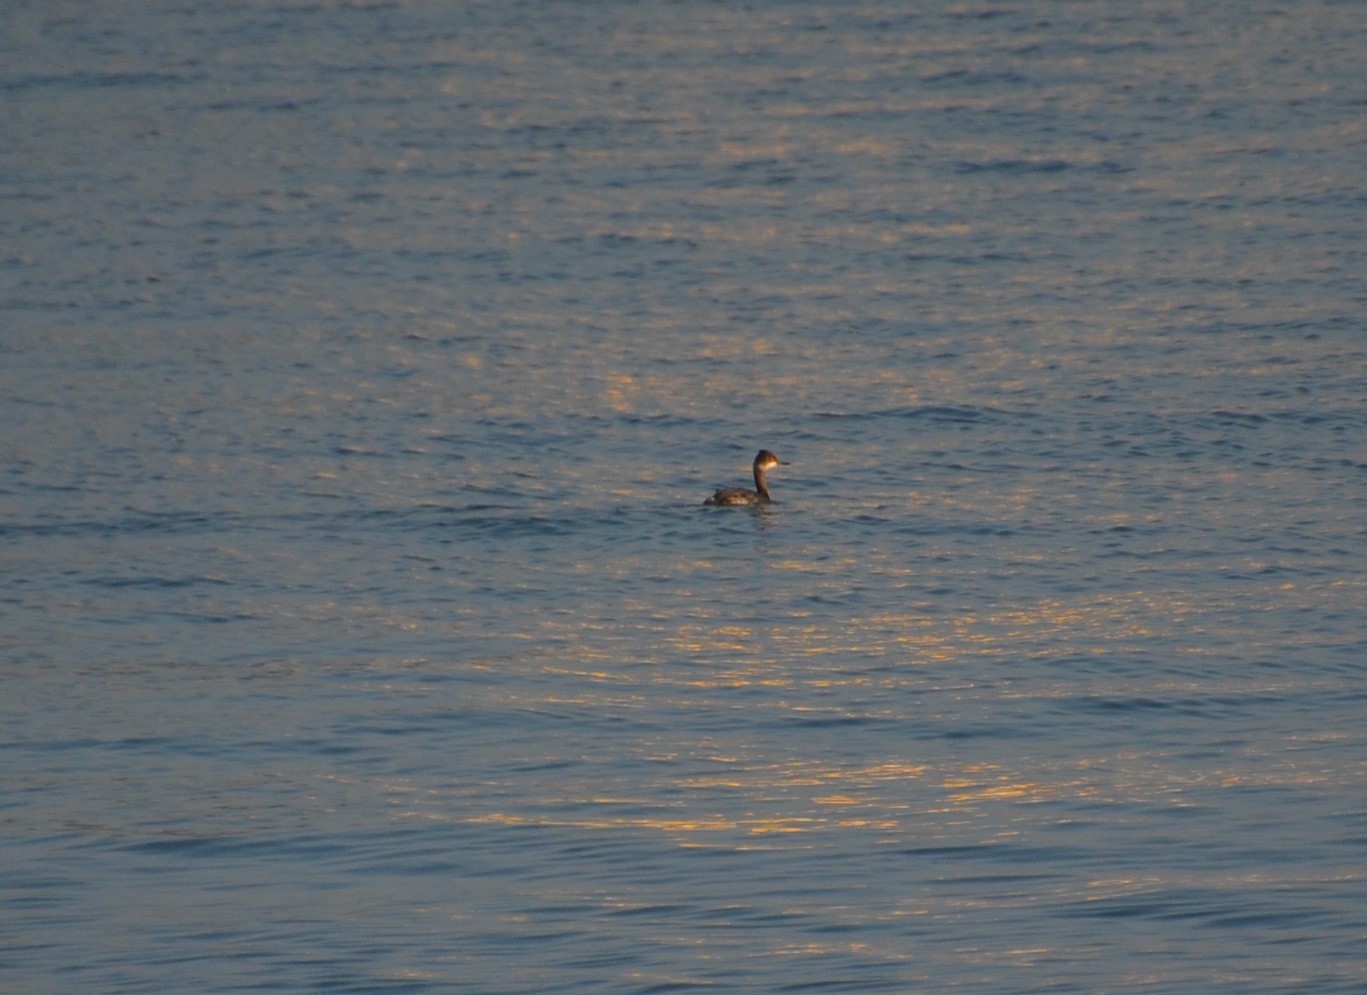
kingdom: Animalia
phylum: Chordata
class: Aves
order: Podicipediformes
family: Podicipedidae
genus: Podiceps
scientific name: Podiceps nigricollis
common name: Black-necked grebe
